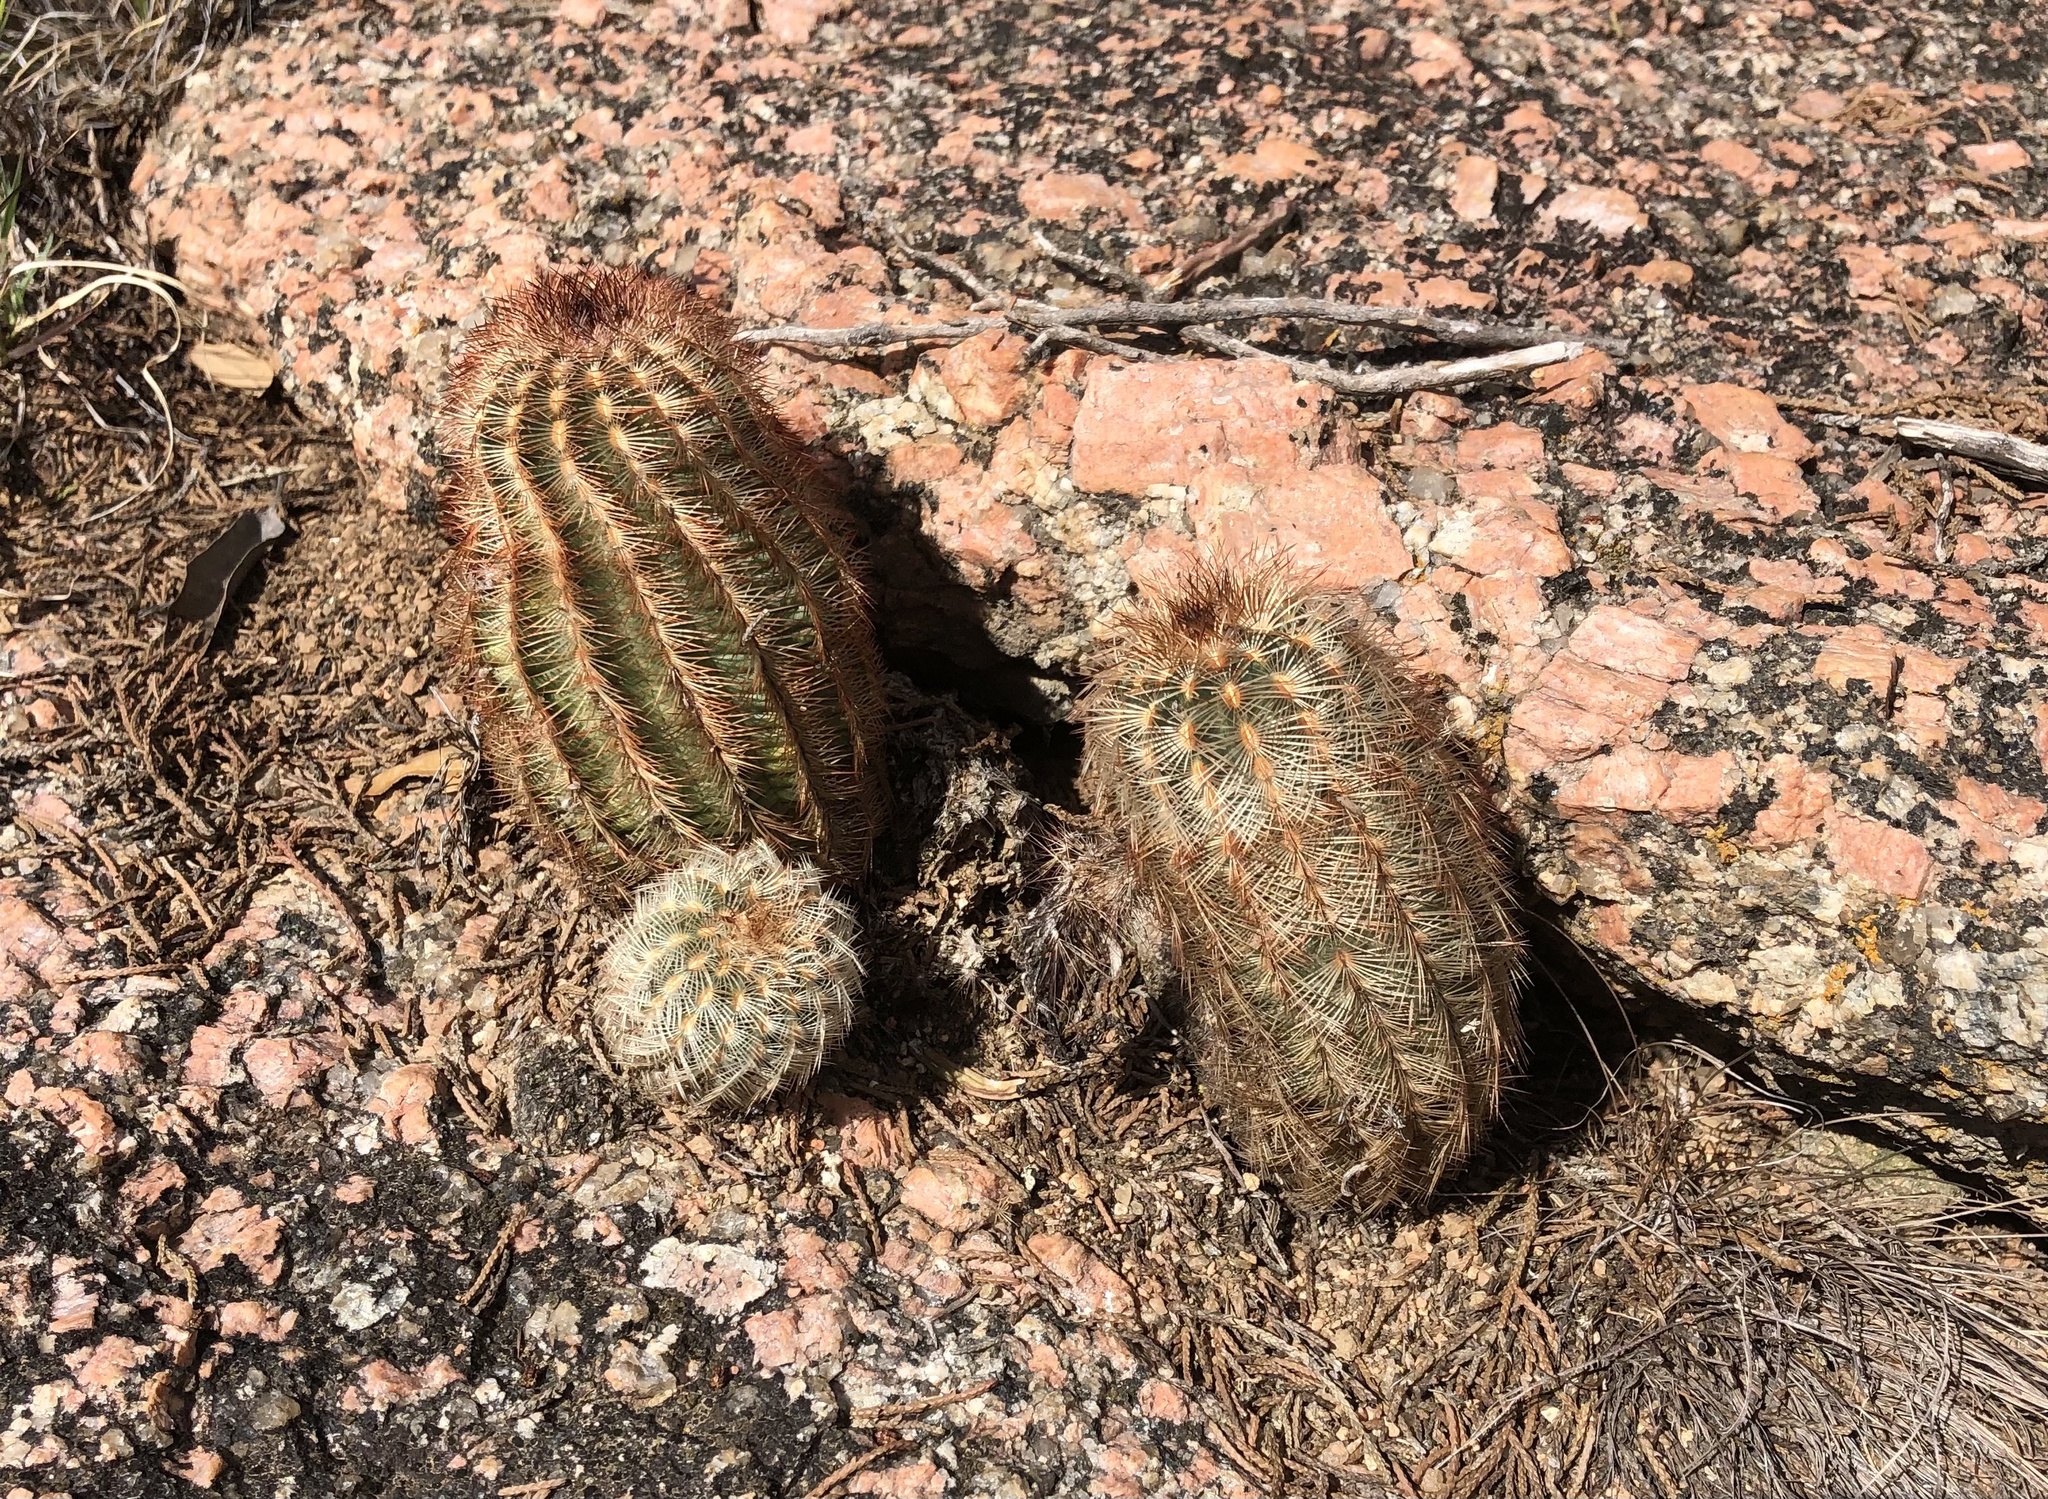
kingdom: Plantae
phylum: Tracheophyta
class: Magnoliopsida
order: Caryophyllales
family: Cactaceae
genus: Echinocereus
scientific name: Echinocereus reichenbachii
